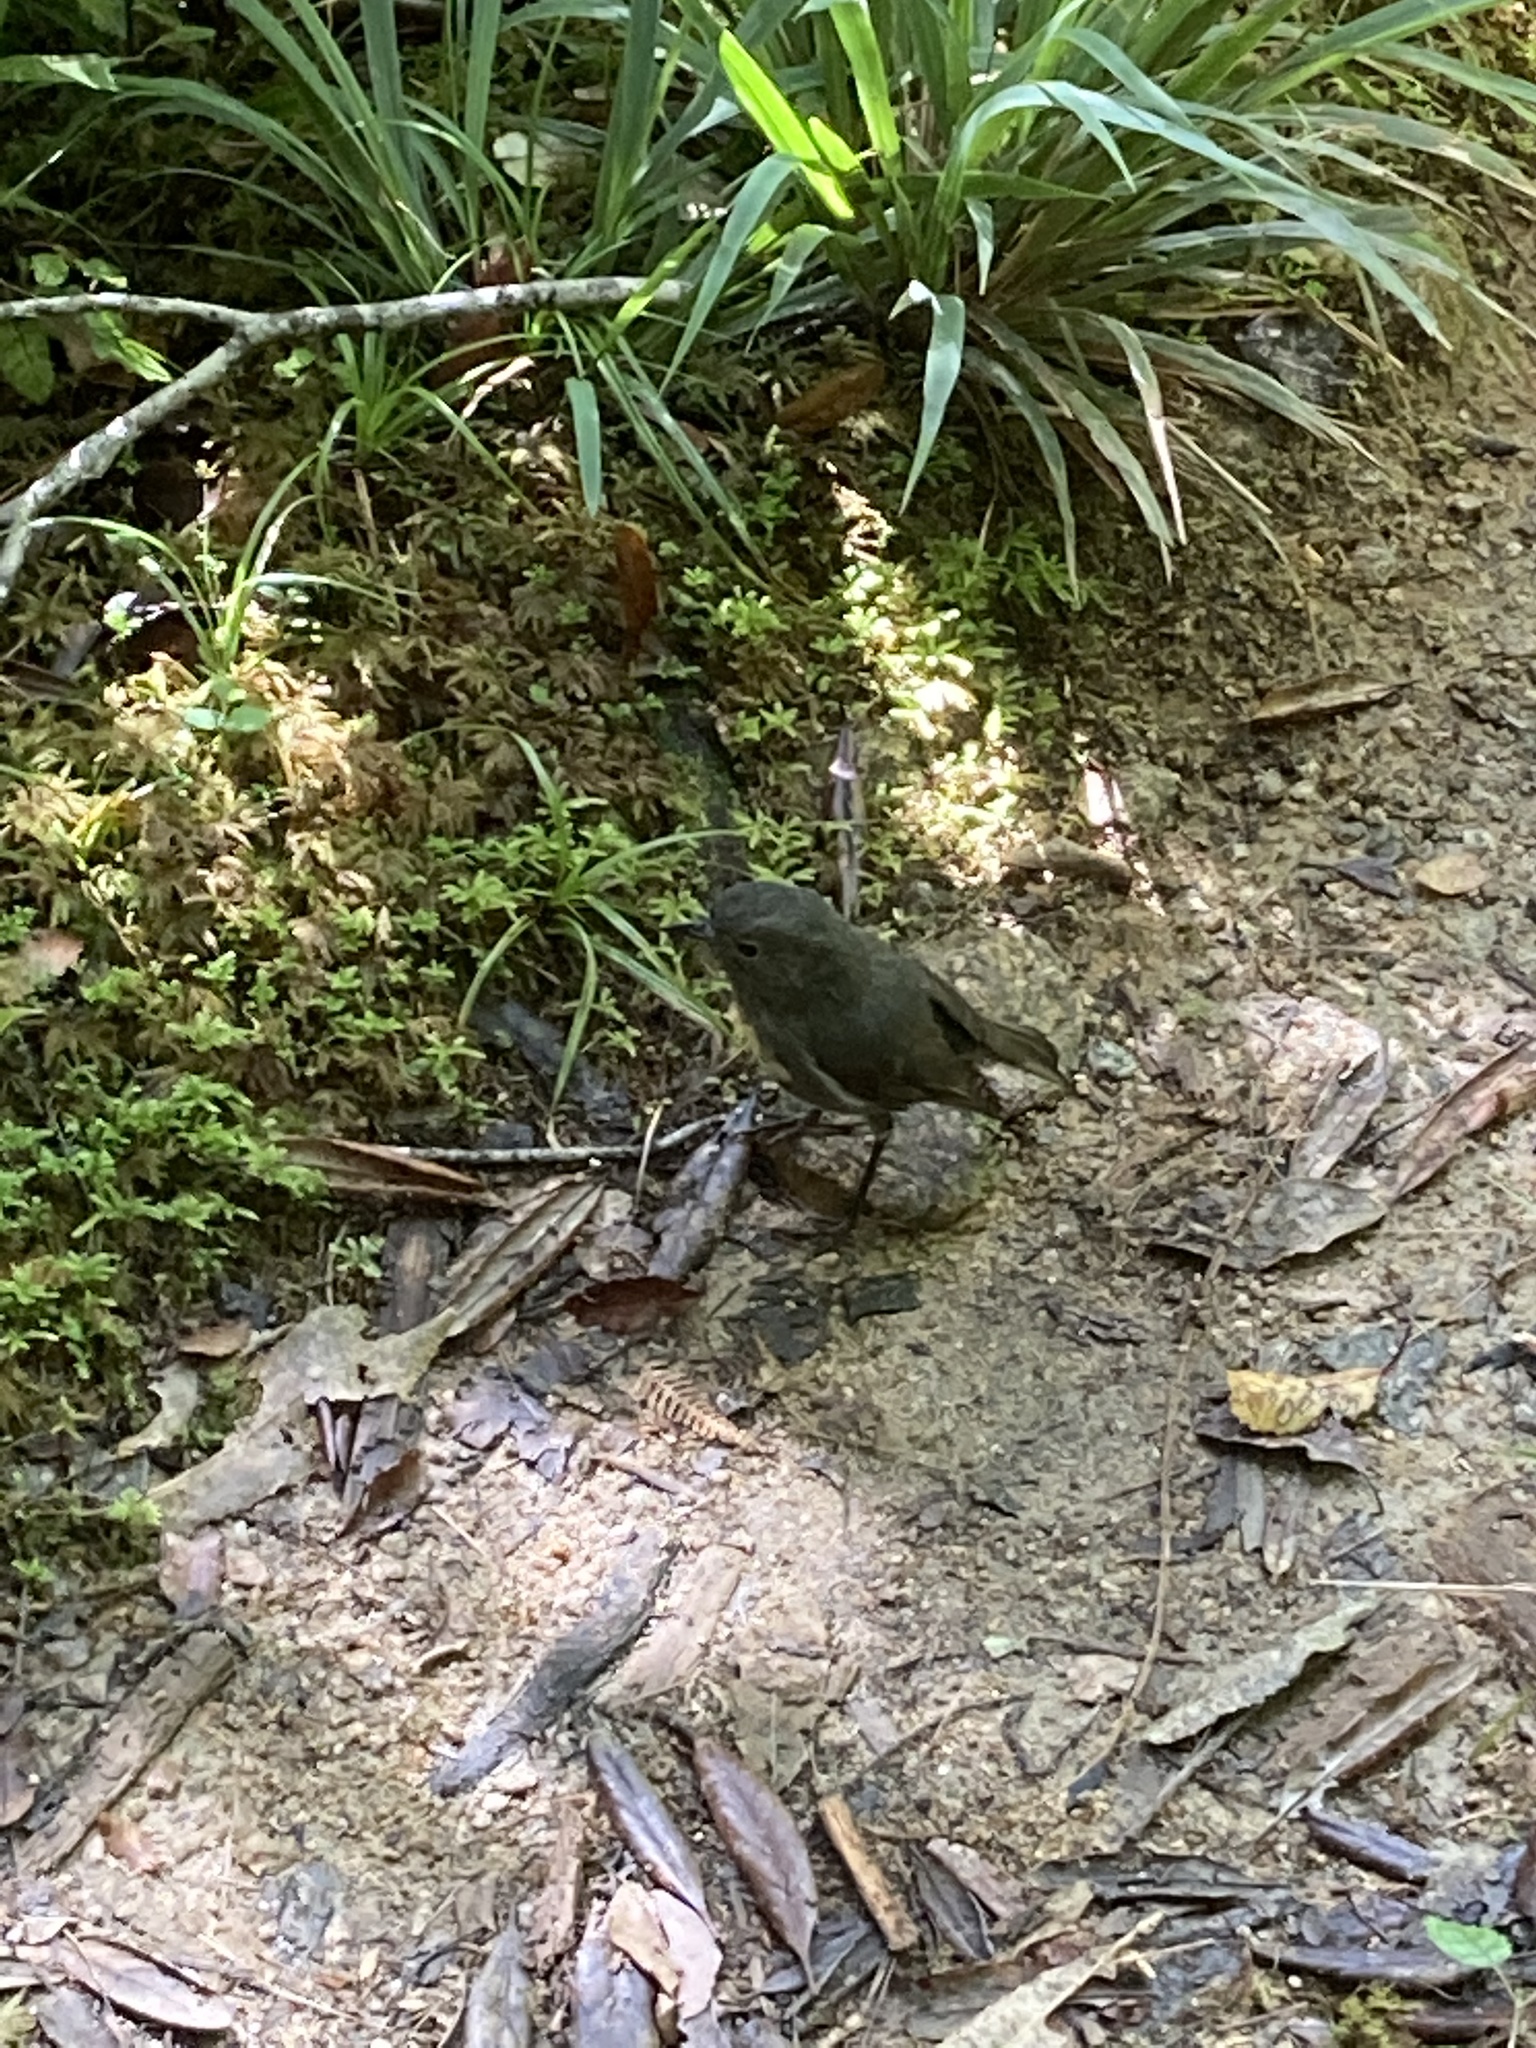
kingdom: Animalia
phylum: Chordata
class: Aves
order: Passeriformes
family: Petroicidae
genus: Petroica
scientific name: Petroica australis
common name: New zealand robin
